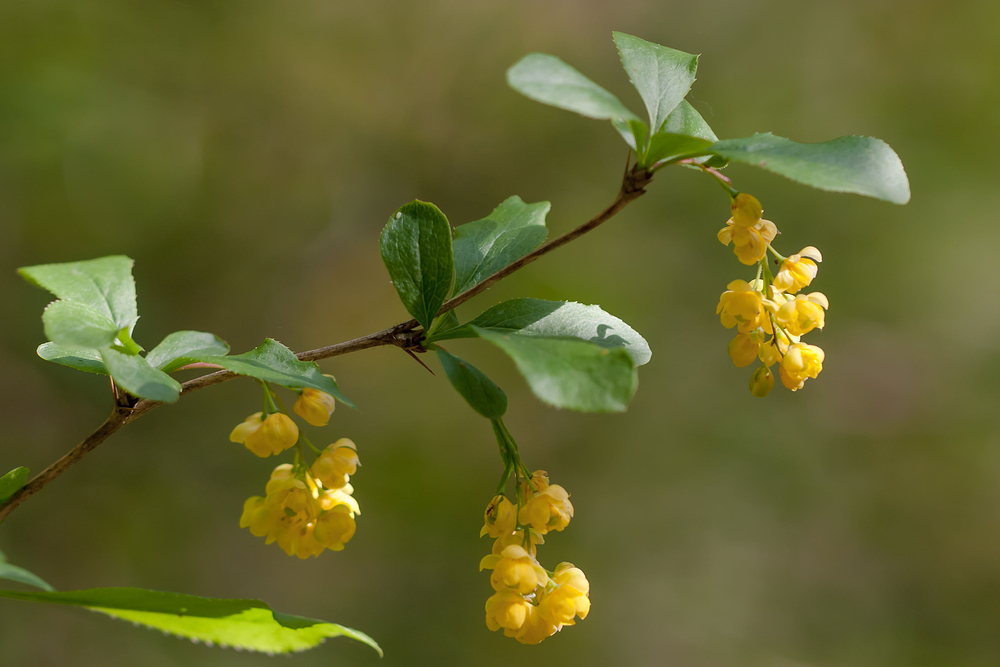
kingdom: Plantae
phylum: Tracheophyta
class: Magnoliopsida
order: Ranunculales
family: Berberidaceae
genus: Berberis
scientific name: Berberis vulgaris
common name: Barberry
